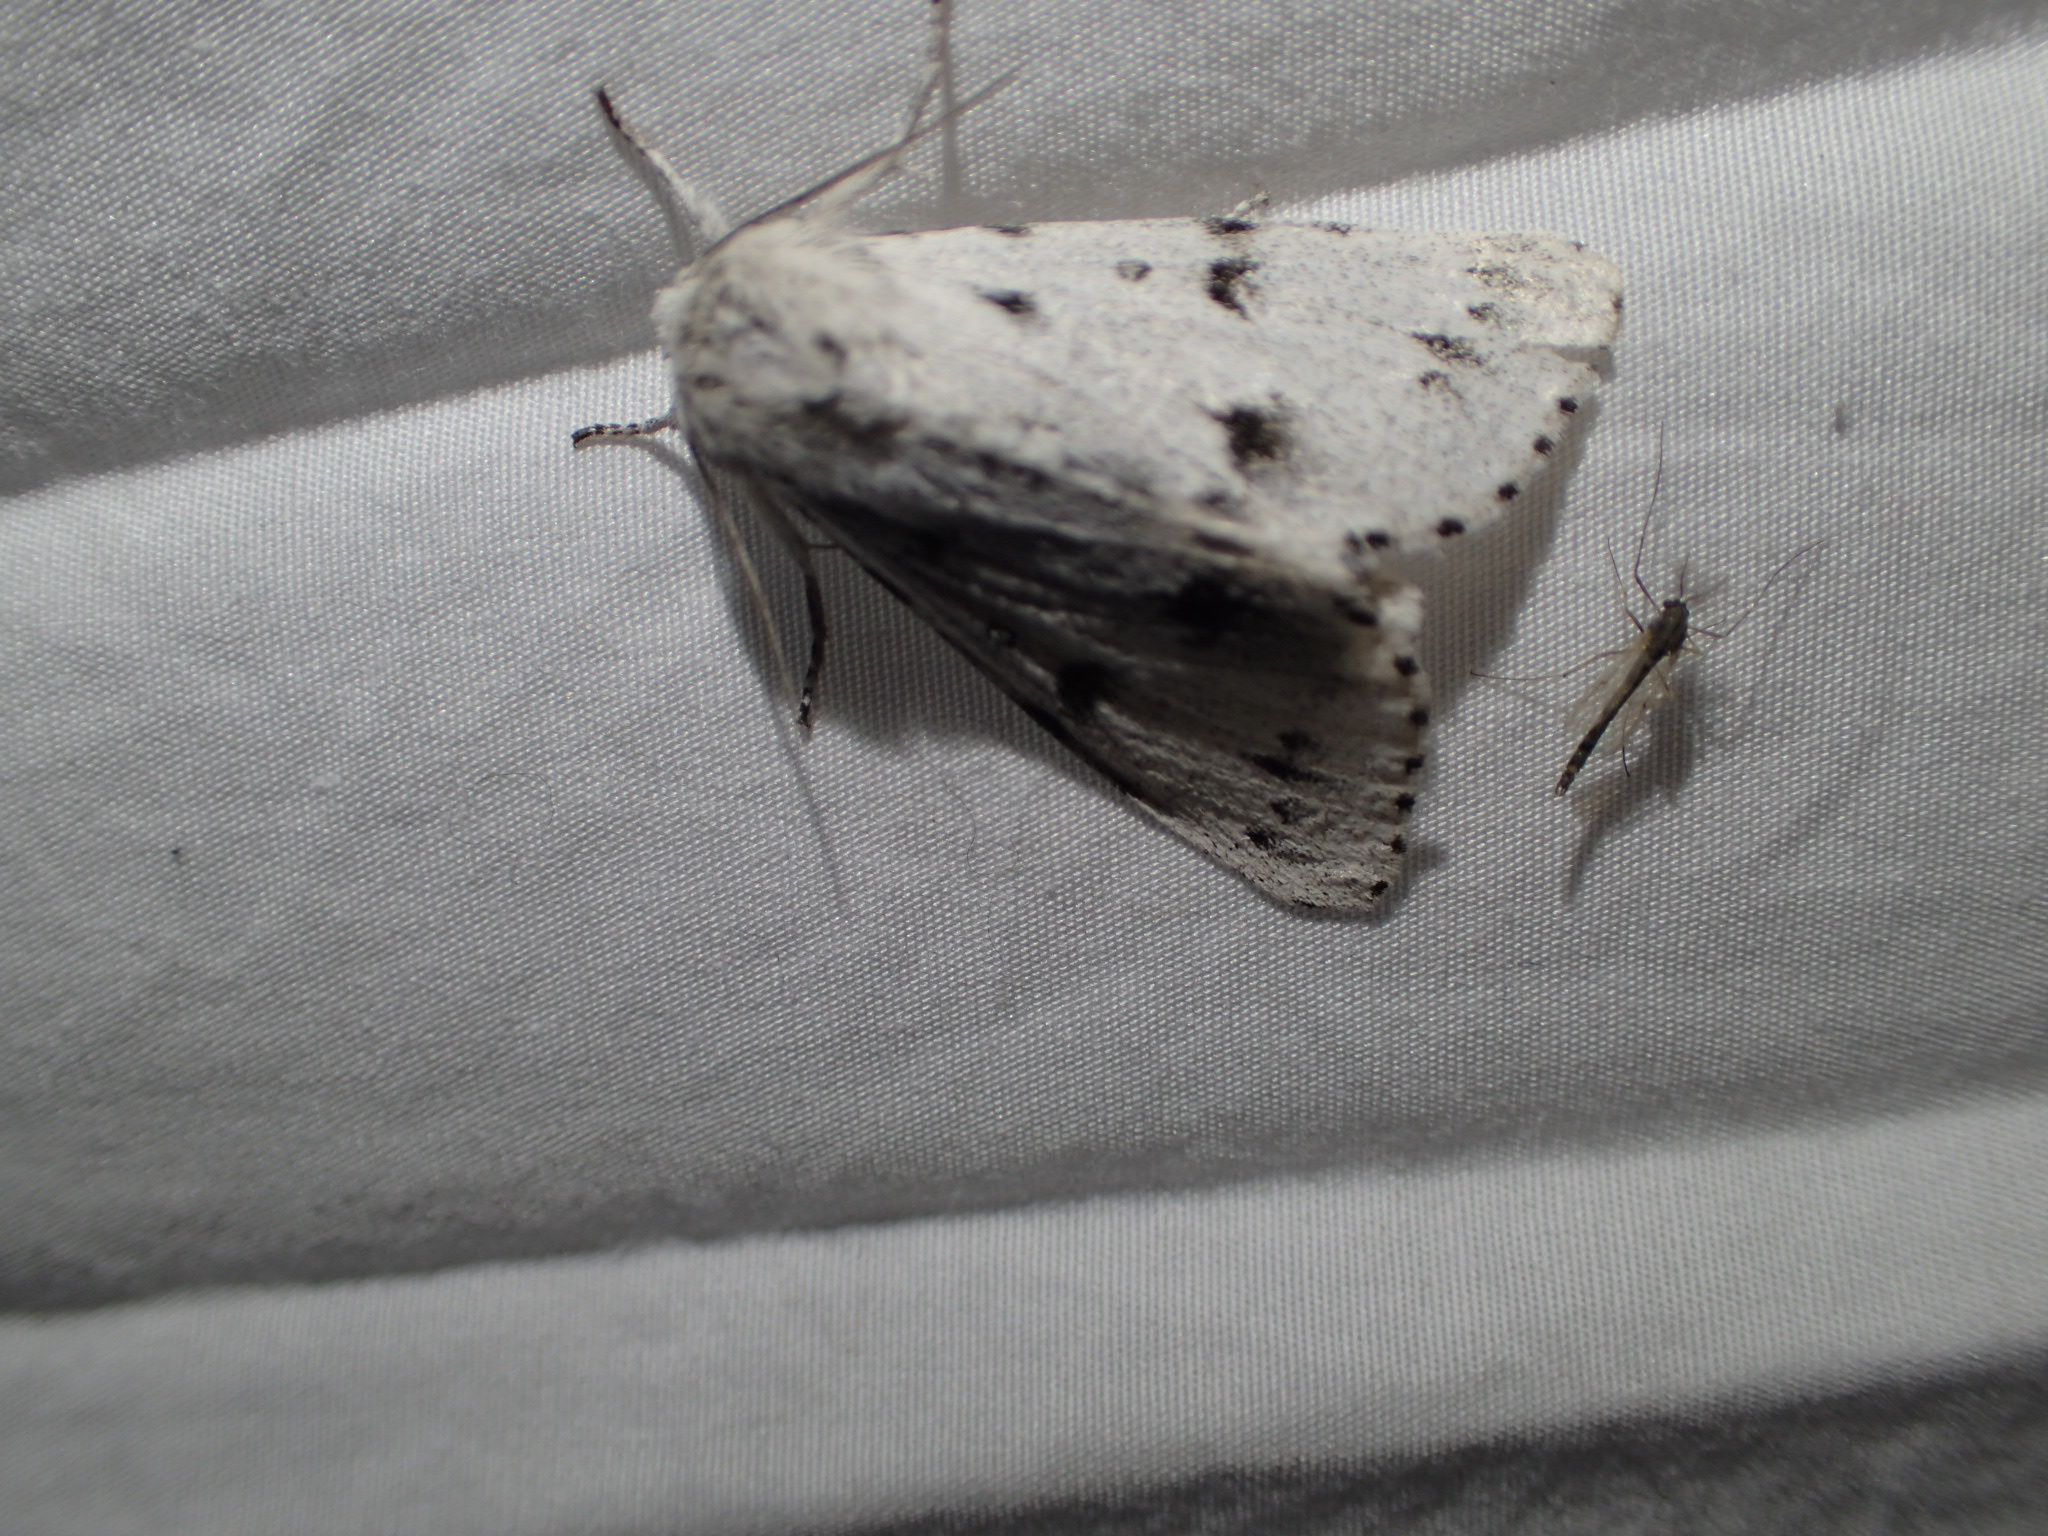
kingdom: Animalia
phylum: Arthropoda
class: Insecta
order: Lepidoptera
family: Noctuidae
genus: Acronicta
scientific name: Acronicta lepusculina
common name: Cottonwood dagger
